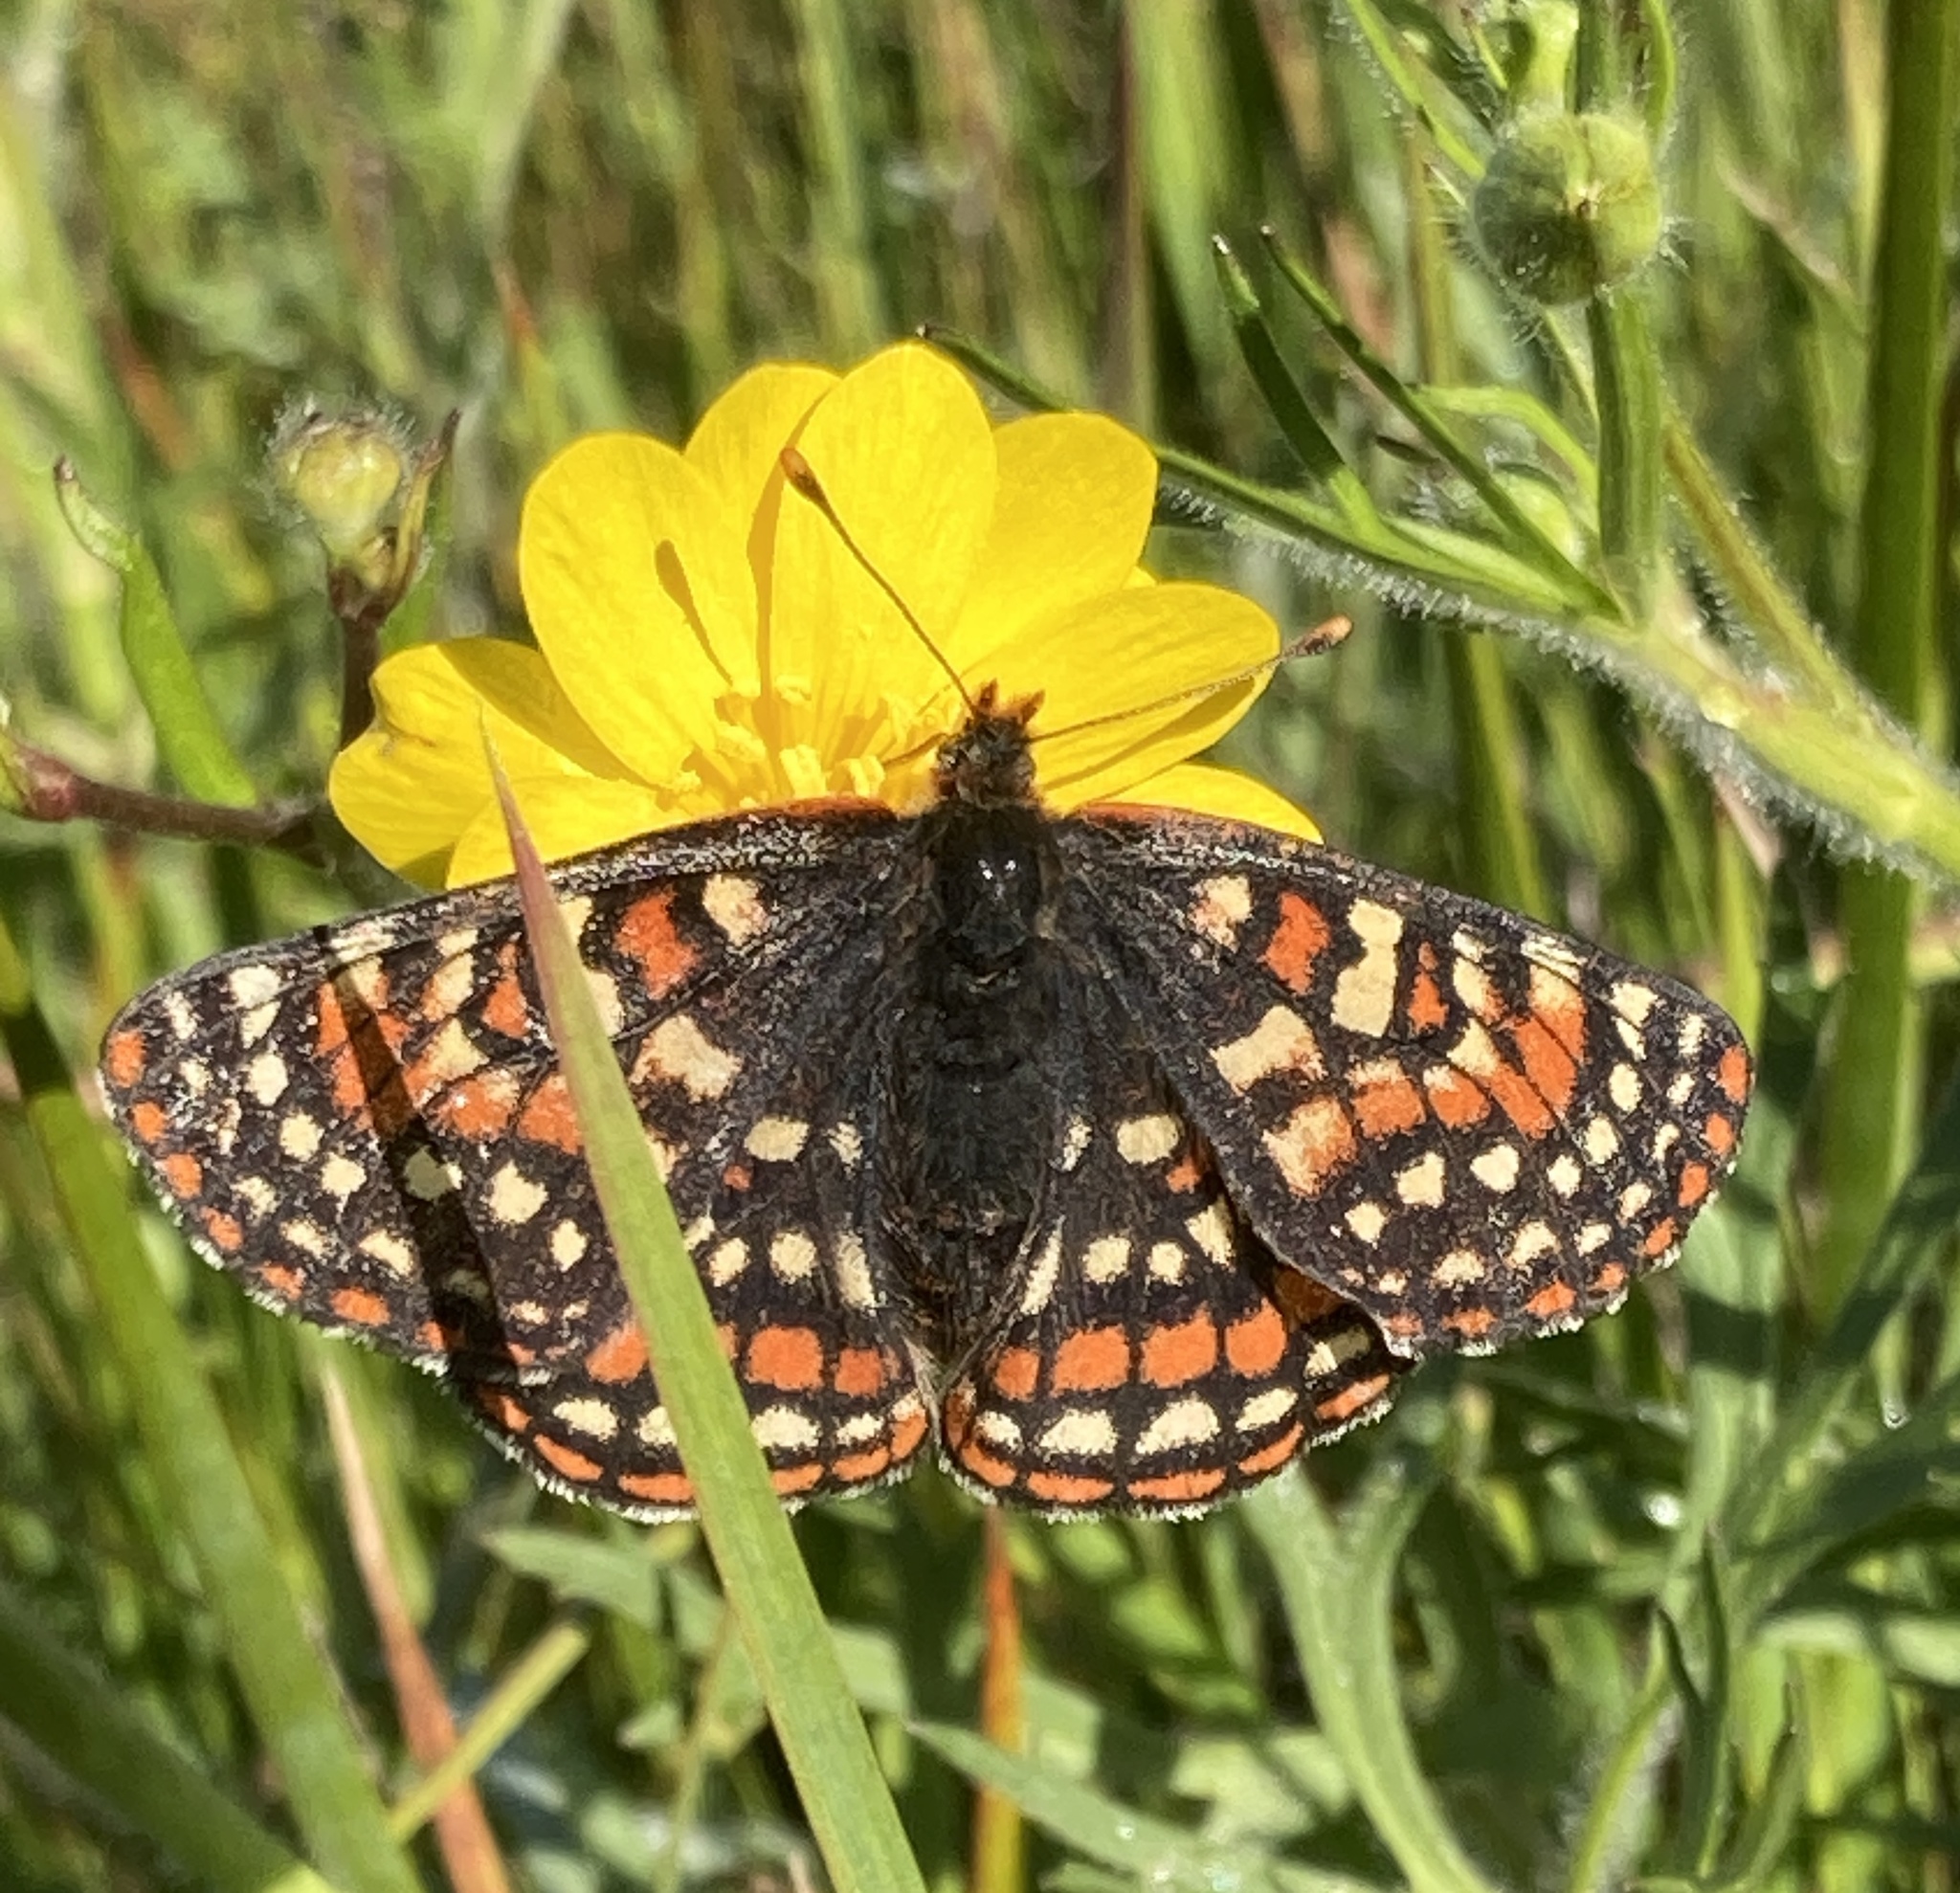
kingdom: Animalia
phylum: Arthropoda
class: Insecta
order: Lepidoptera
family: Nymphalidae
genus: Occidryas
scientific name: Occidryas editha
